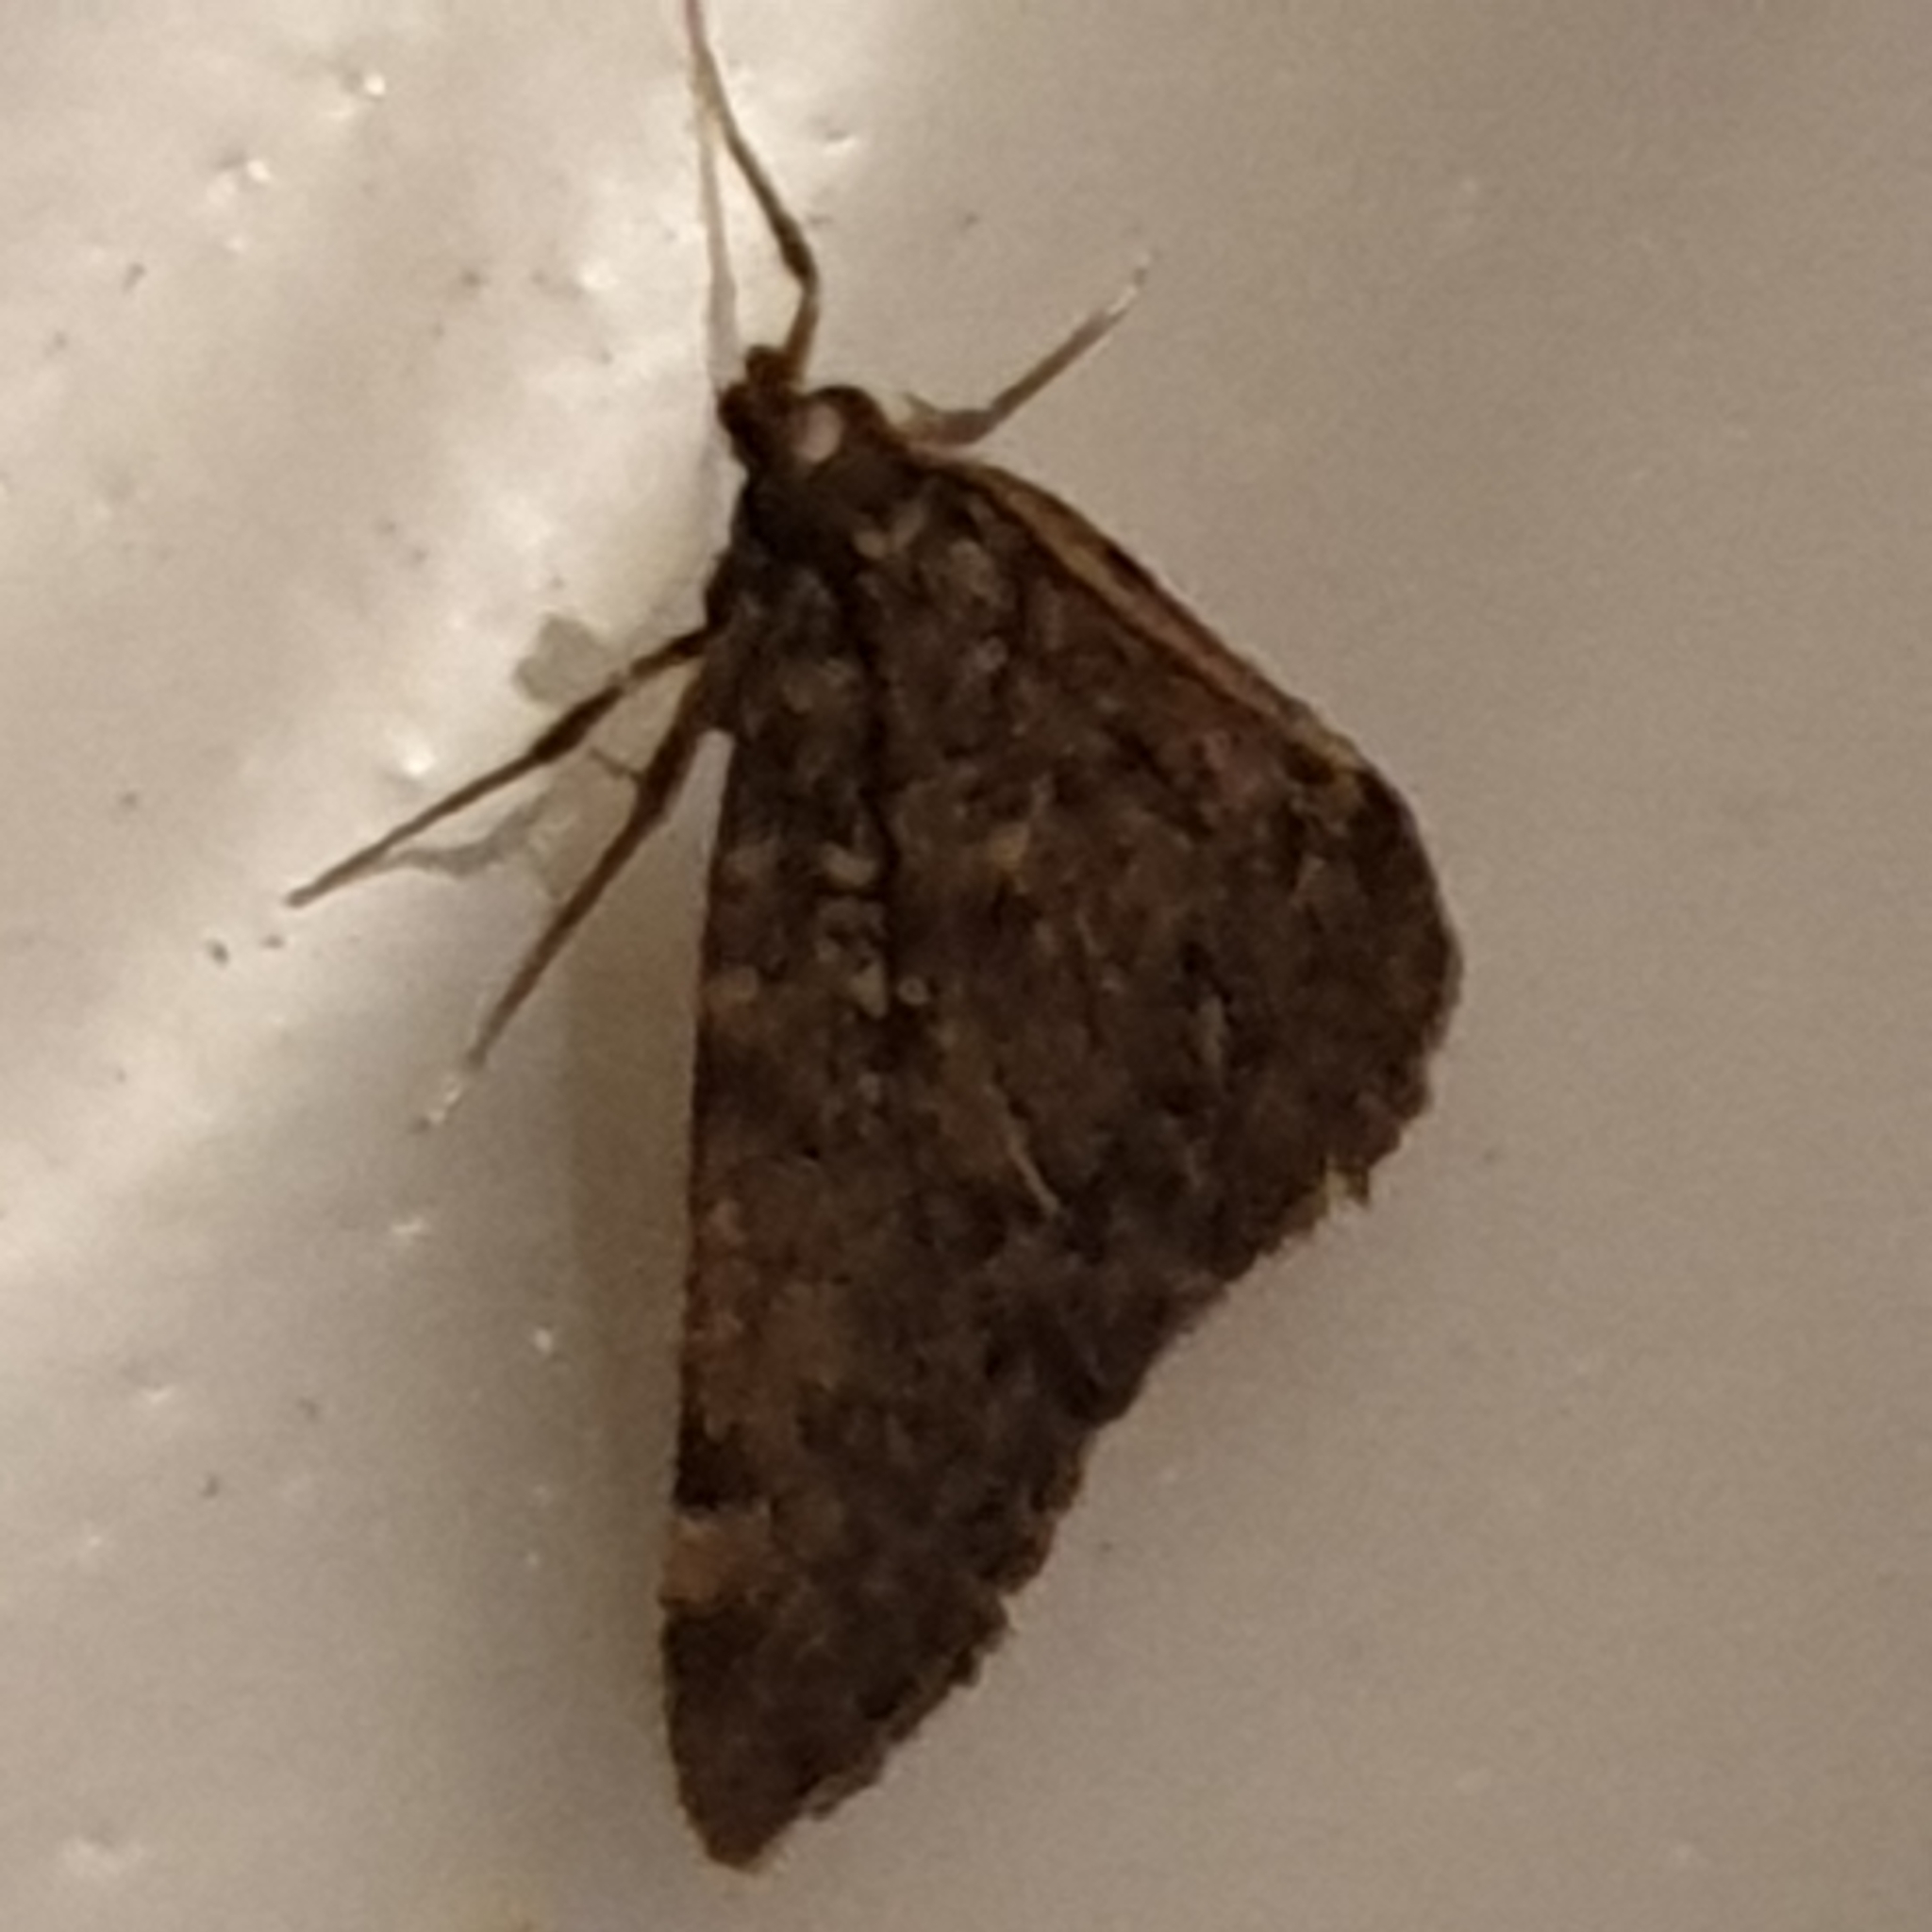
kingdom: Animalia
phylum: Arthropoda
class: Insecta
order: Lepidoptera
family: Pyralidae
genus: Aglossa
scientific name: Aglossa pinguinalis
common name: Large tabby
